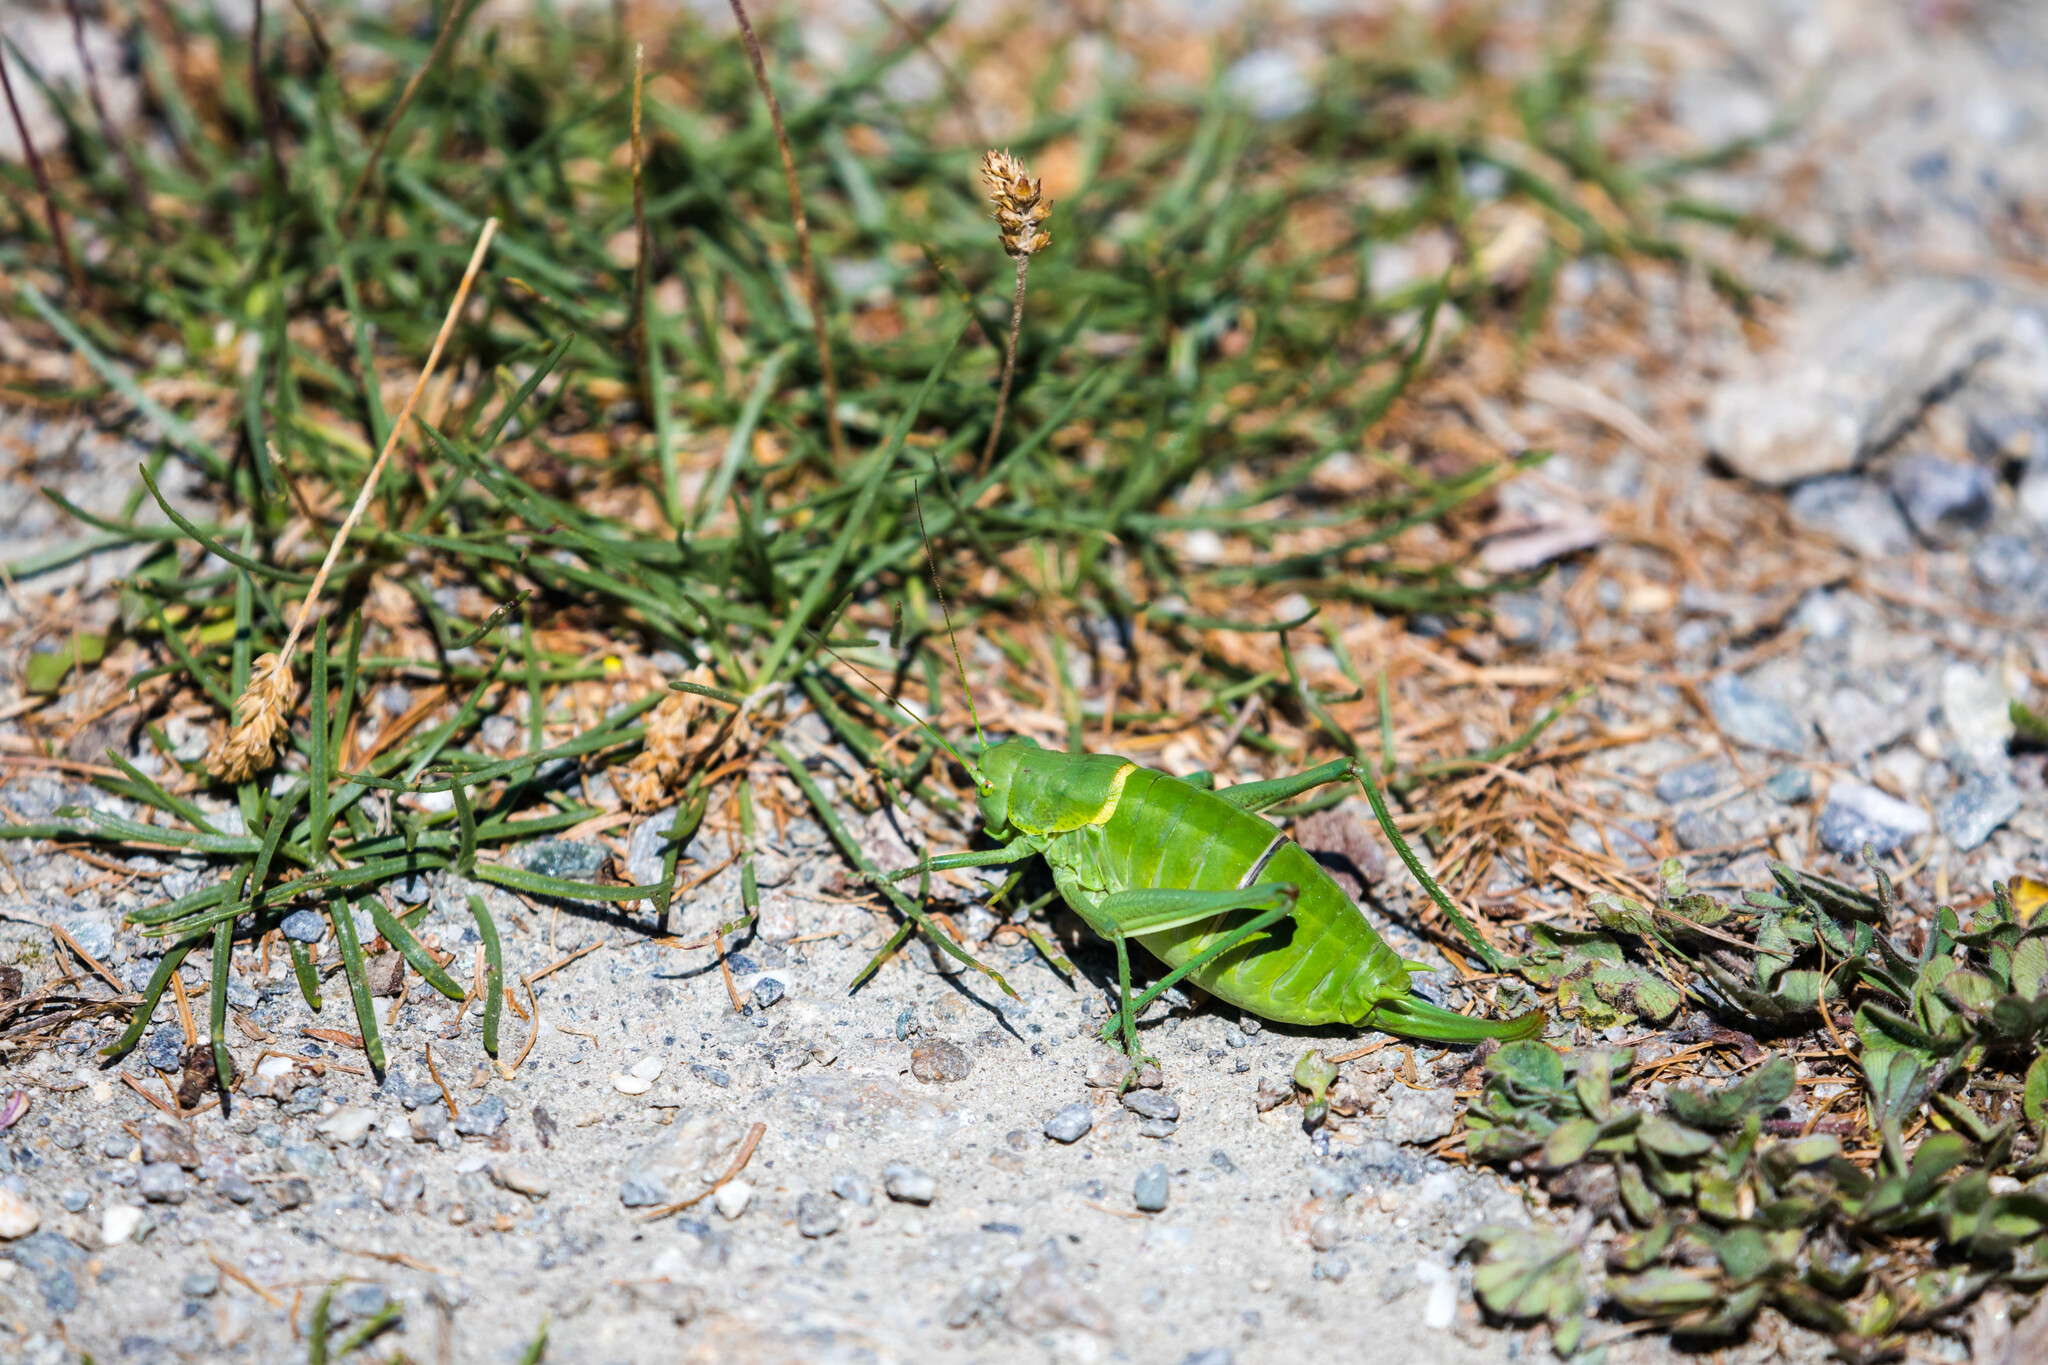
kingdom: Animalia
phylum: Arthropoda
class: Insecta
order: Orthoptera
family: Tettigoniidae
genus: Polysarcus
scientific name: Polysarcus denticauda
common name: Large saw-tailed bush-cricket
